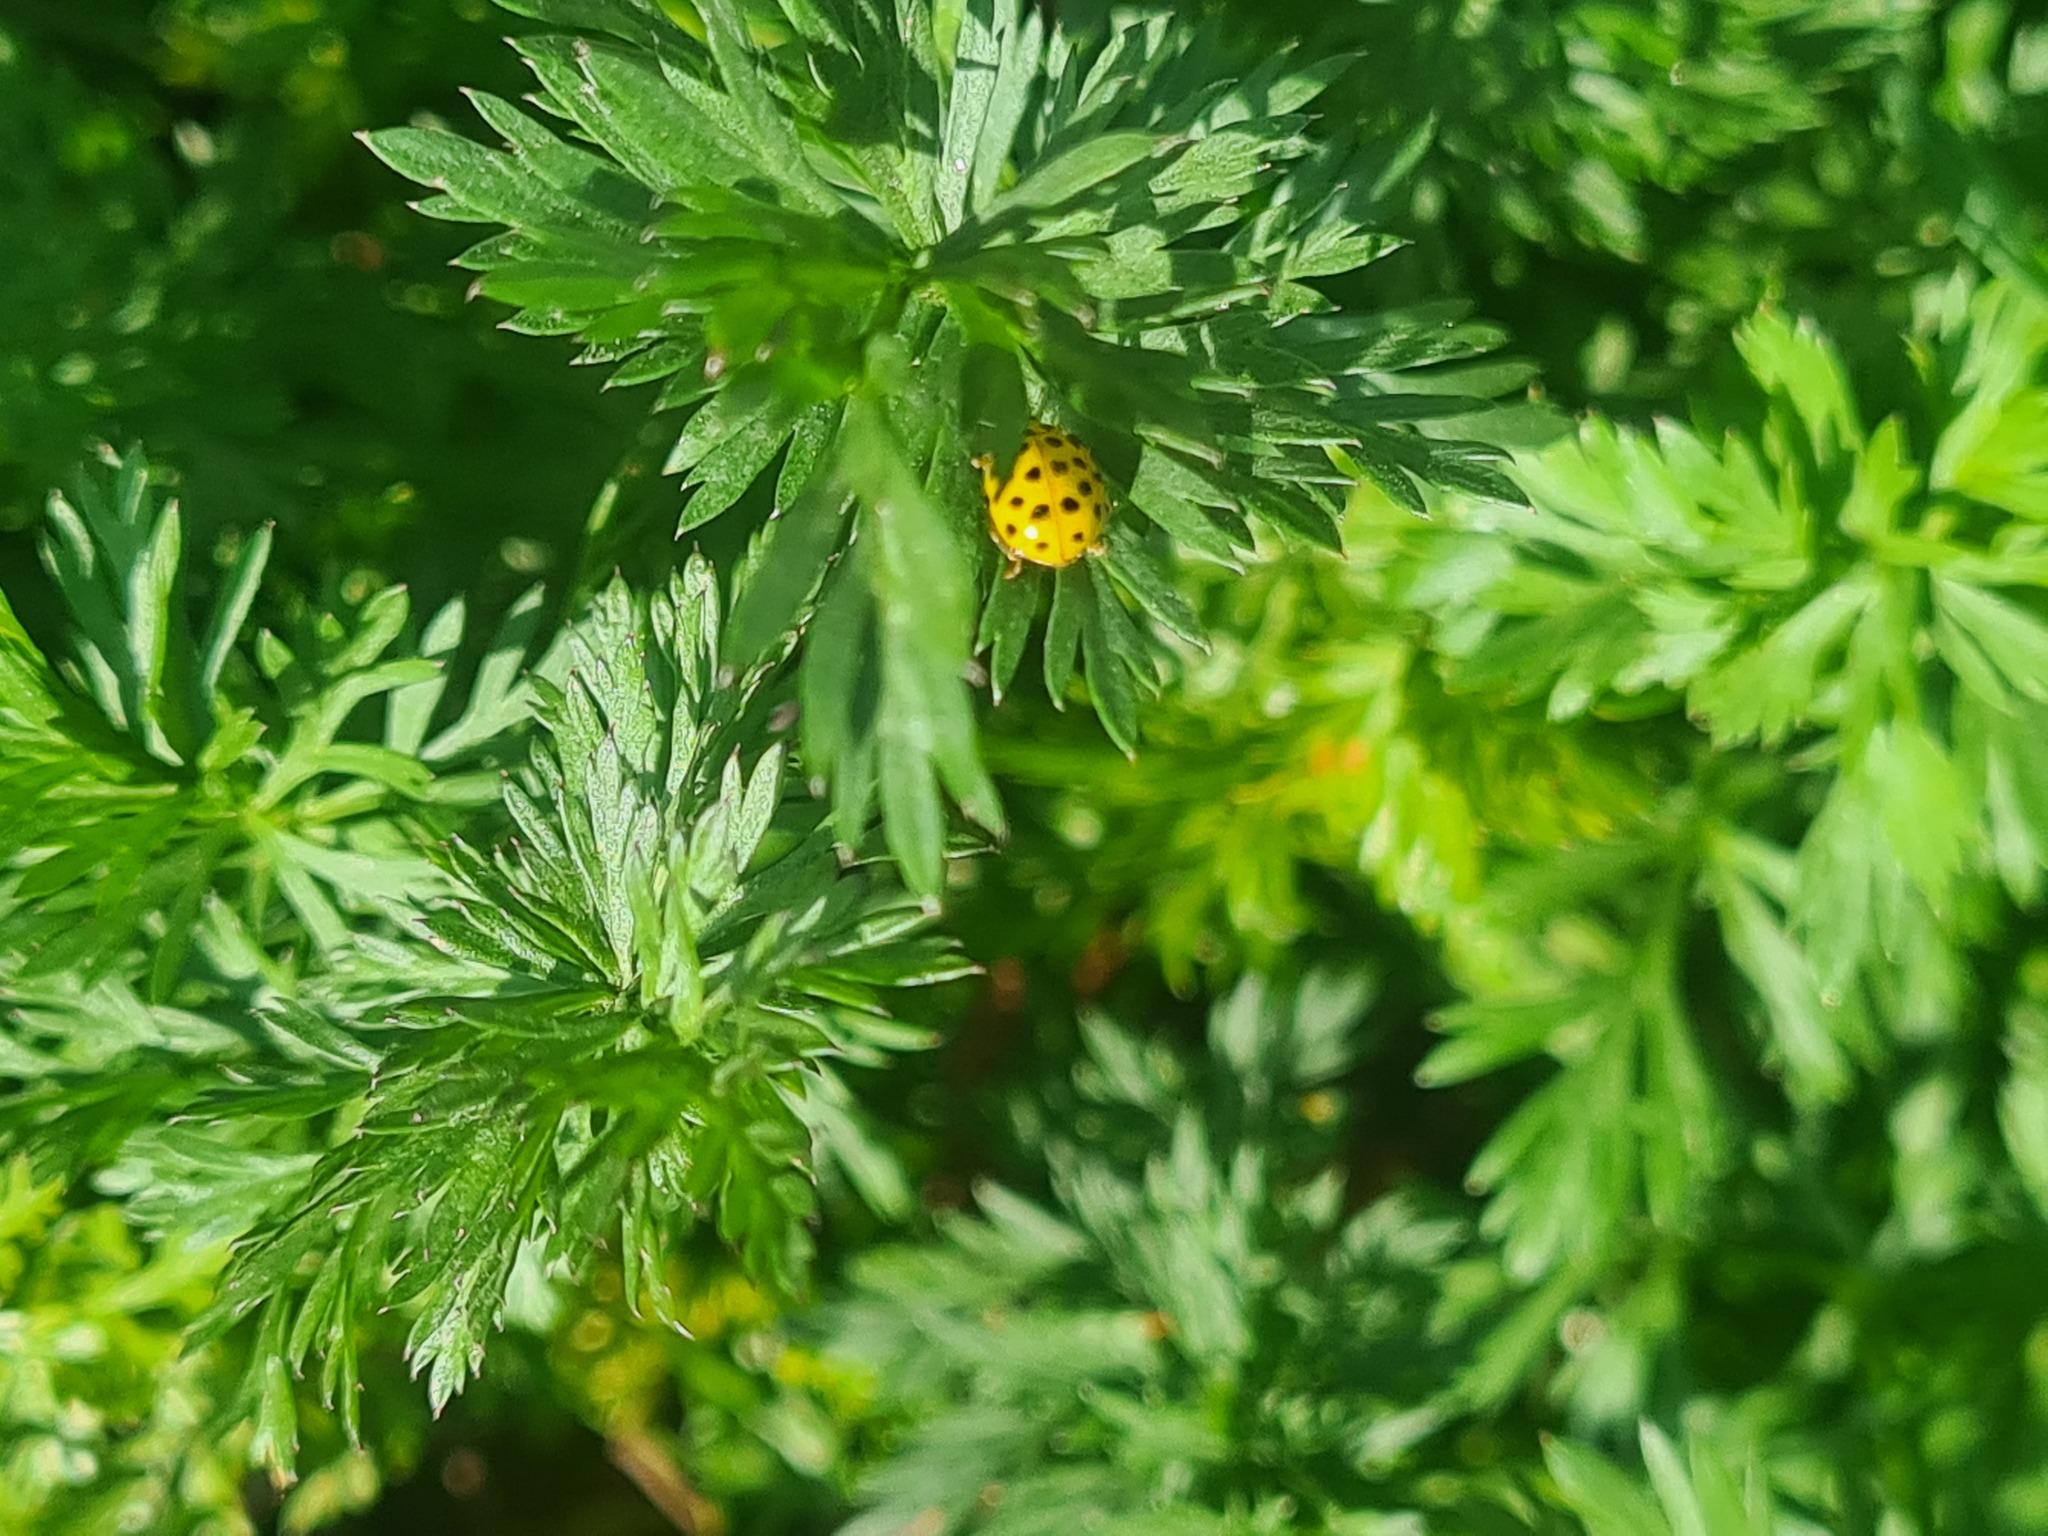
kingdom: Animalia
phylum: Arthropoda
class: Insecta
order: Coleoptera
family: Coccinellidae
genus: Psyllobora
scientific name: Psyllobora vigintiduopunctata
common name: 22-spot ladybird
